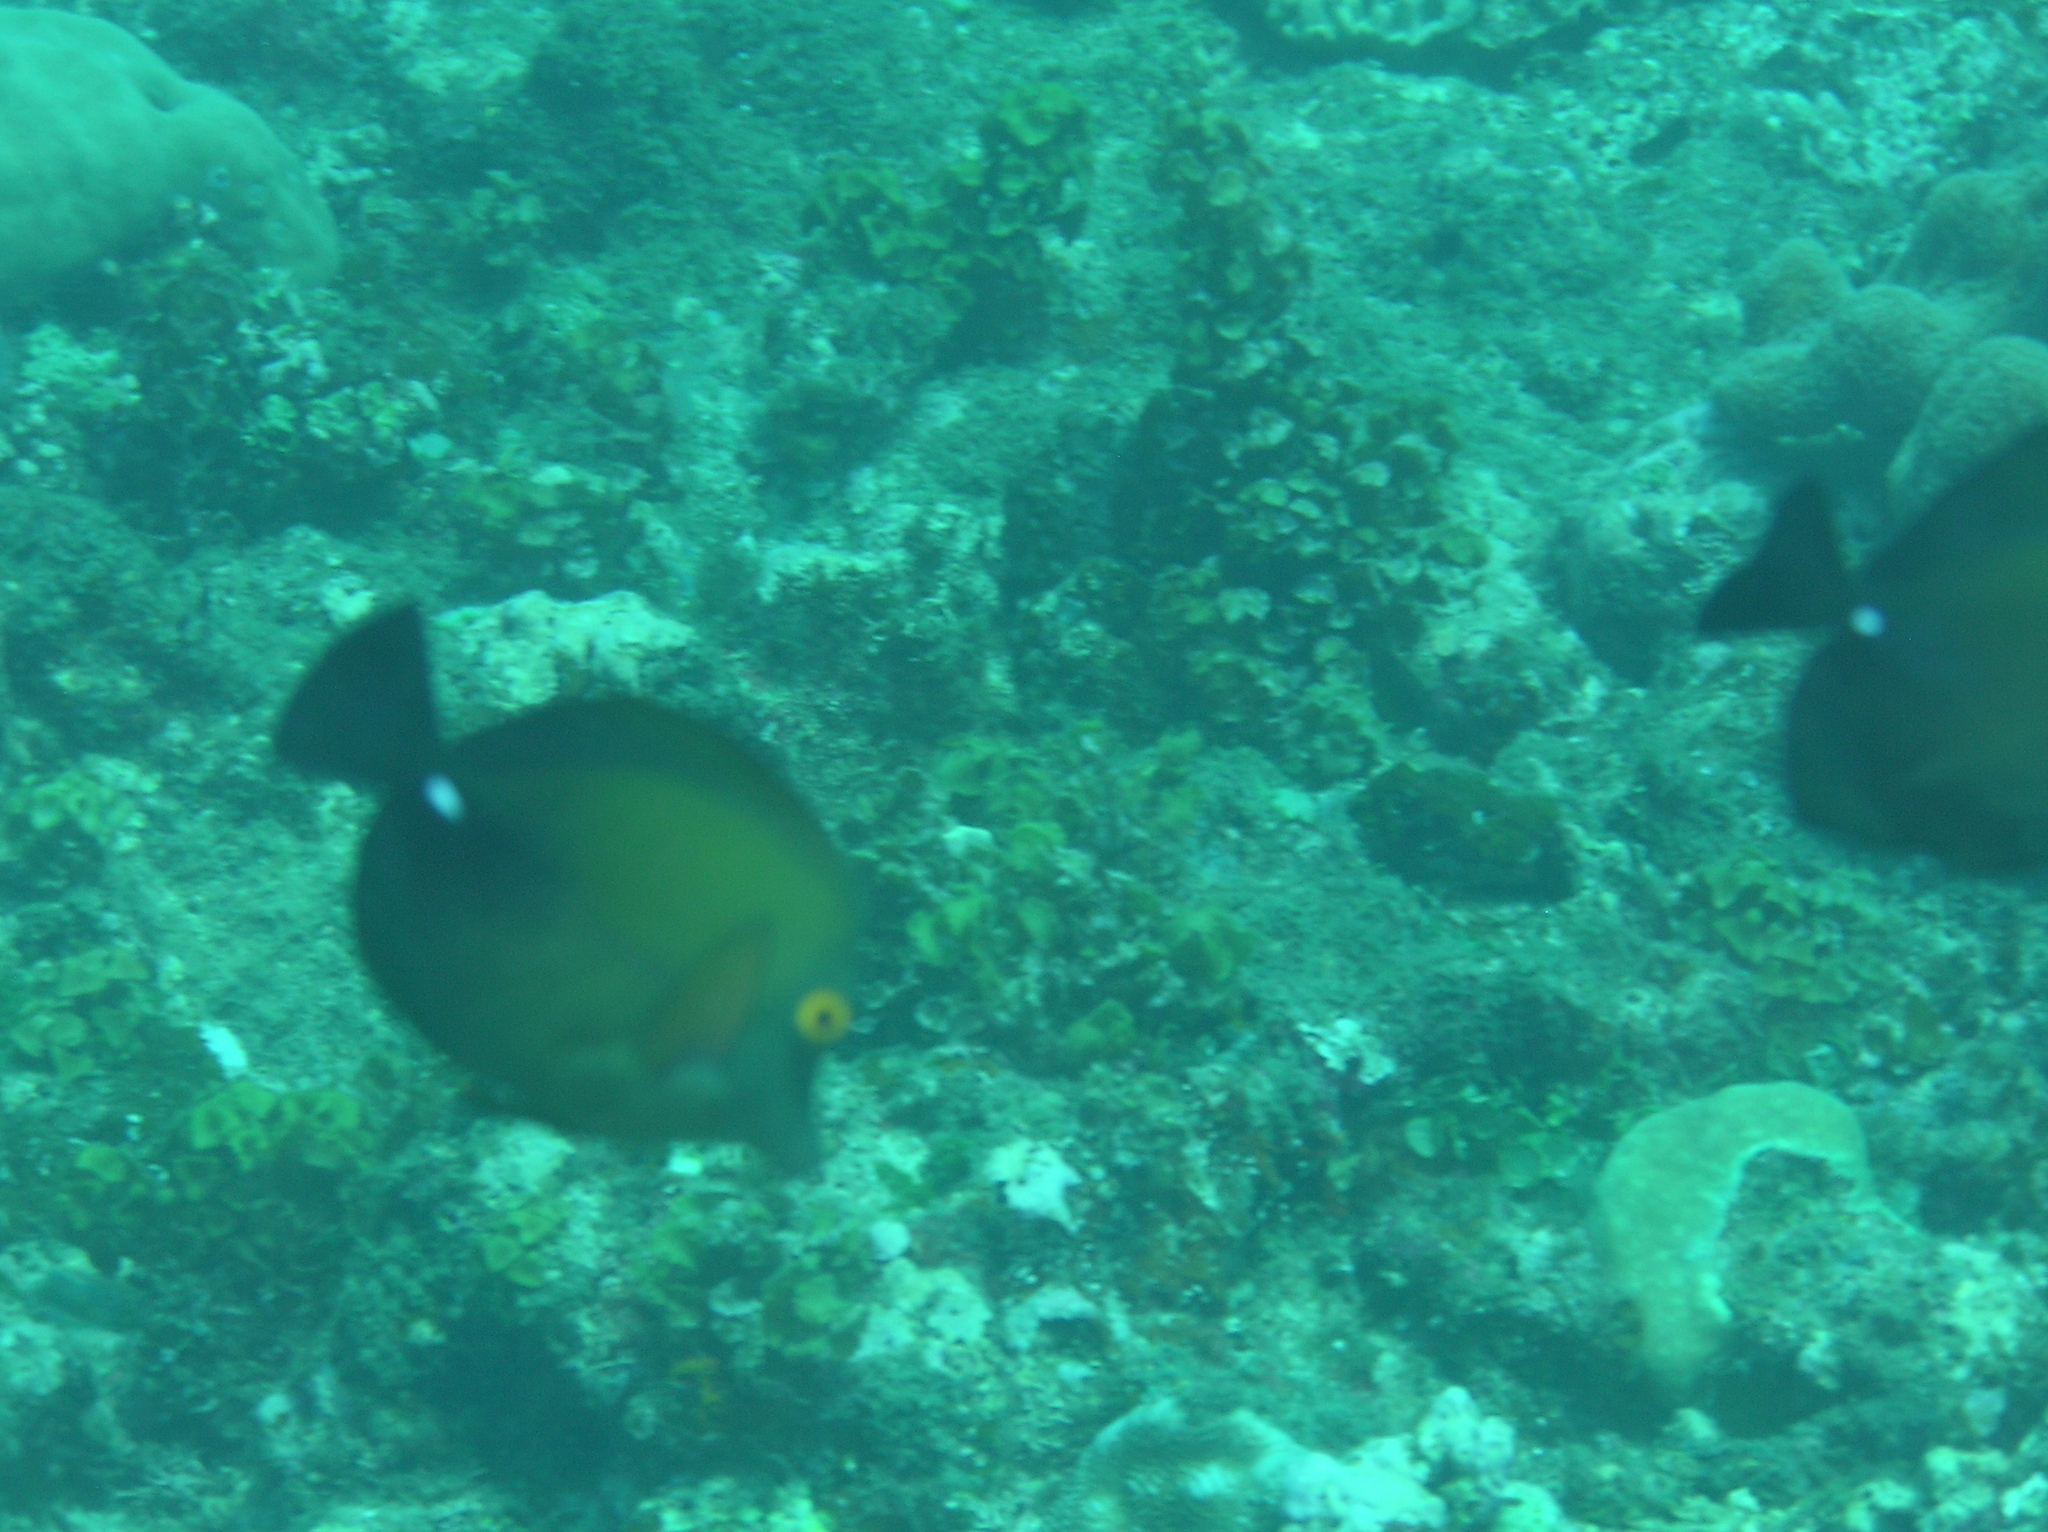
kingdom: Animalia
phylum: Chordata
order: Perciformes
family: Acanthuridae
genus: Zebrasoma
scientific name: Zebrasoma scopas
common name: Twotone tang
